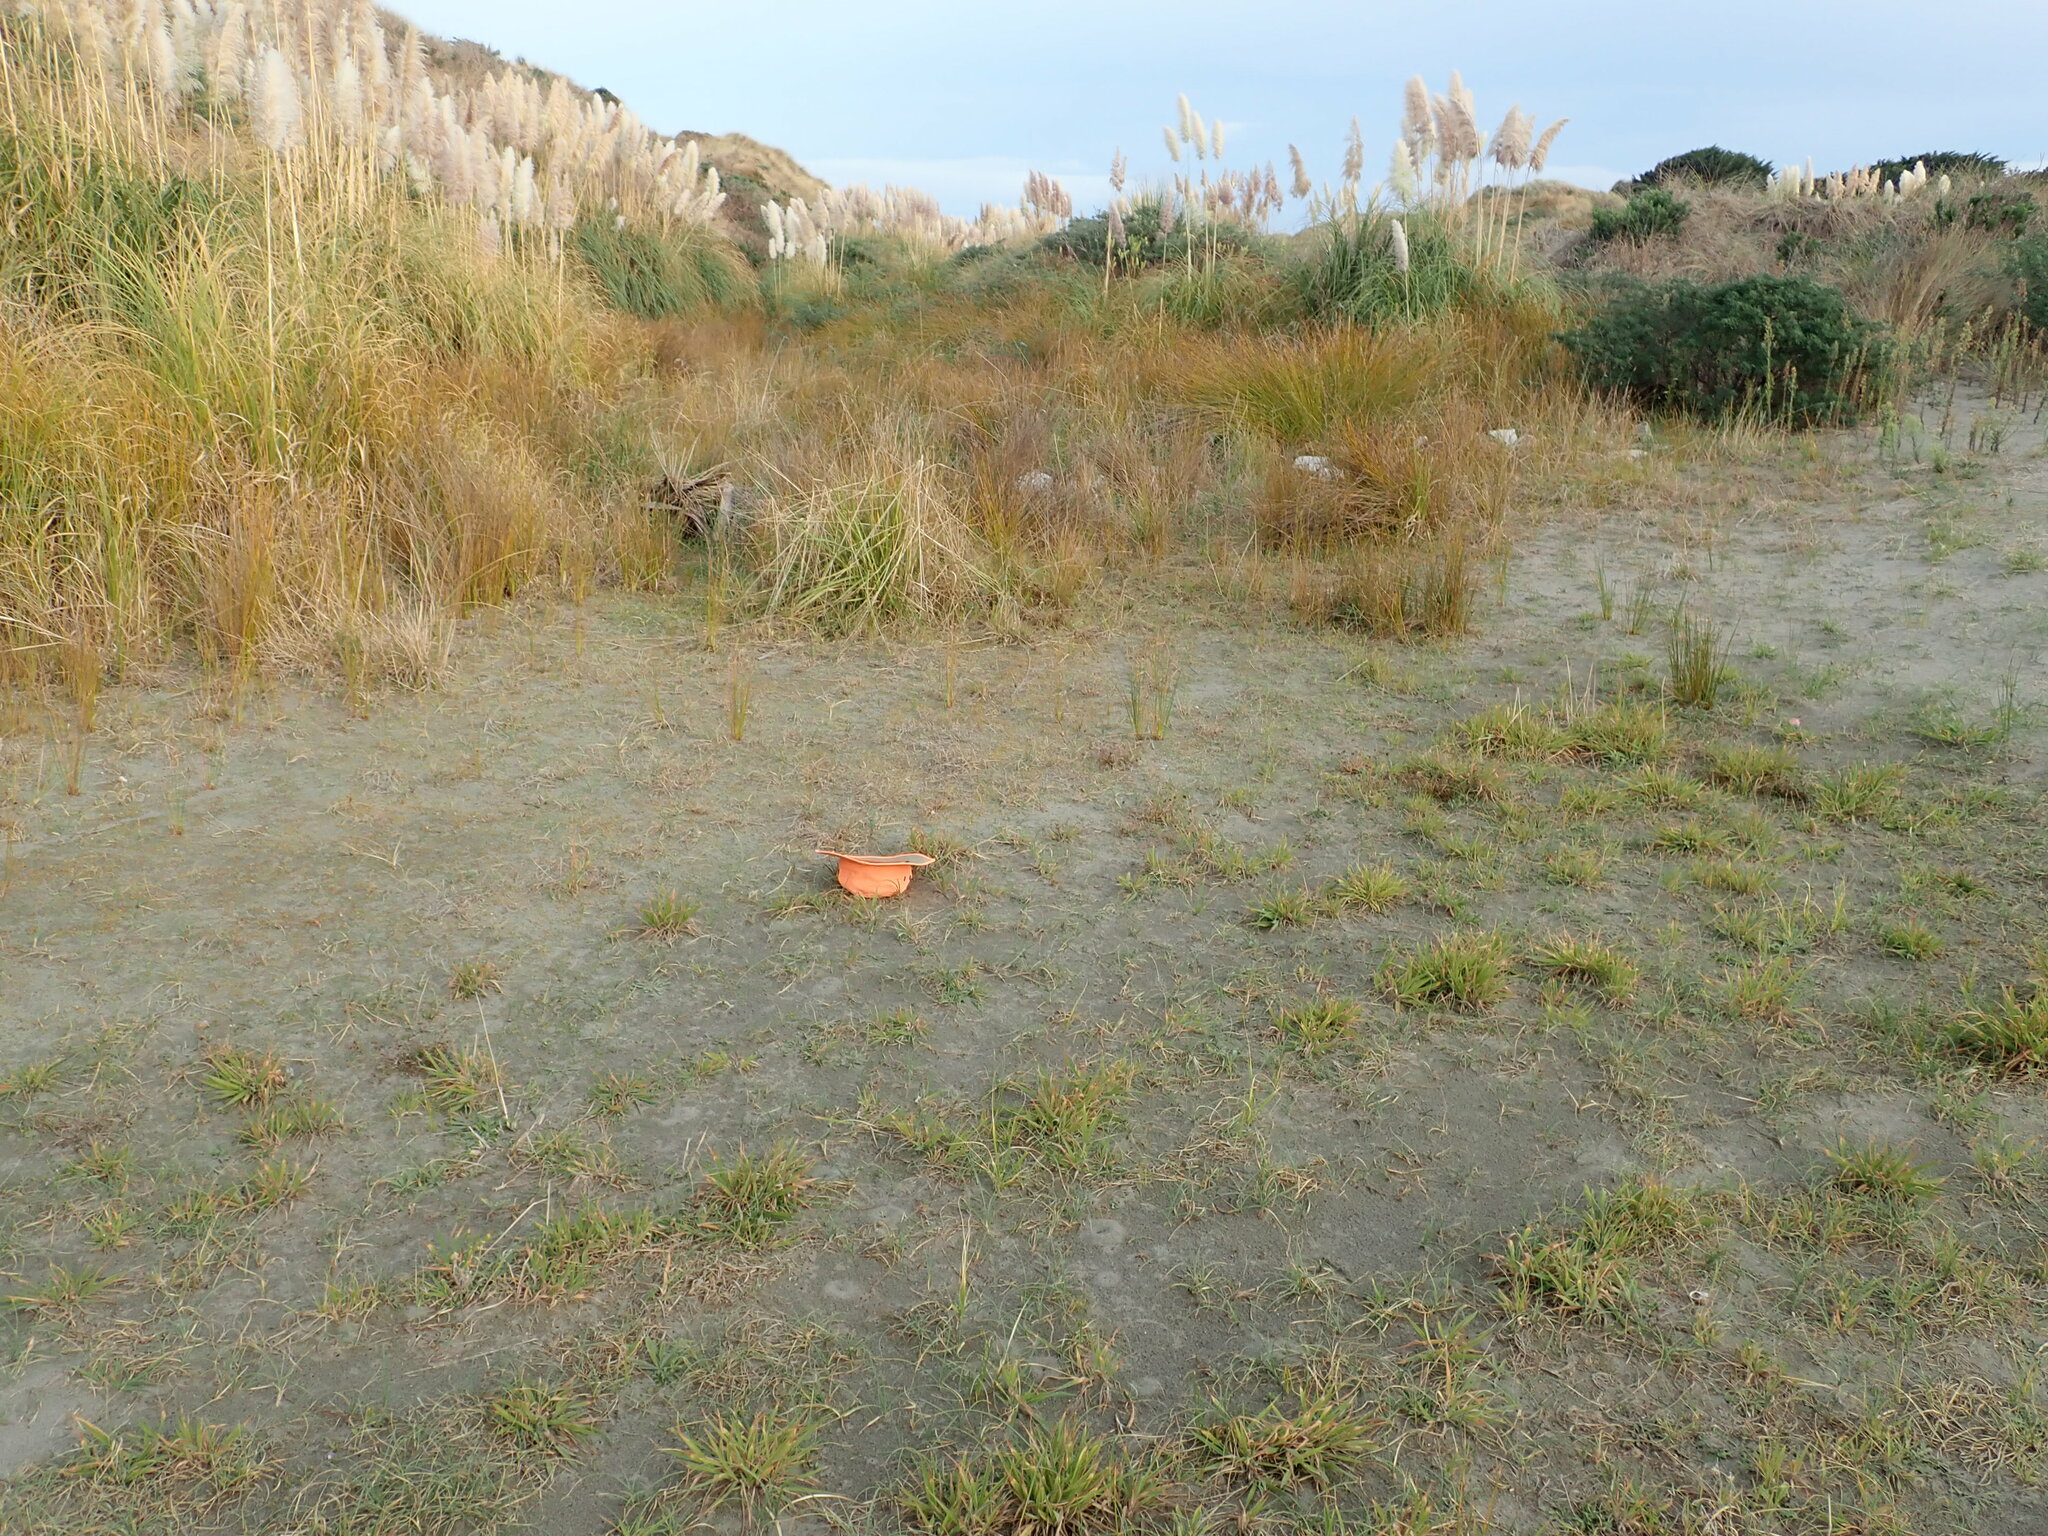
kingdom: Plantae
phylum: Tracheophyta
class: Magnoliopsida
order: Asterales
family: Campanulaceae
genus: Lobelia
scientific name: Lobelia anceps
